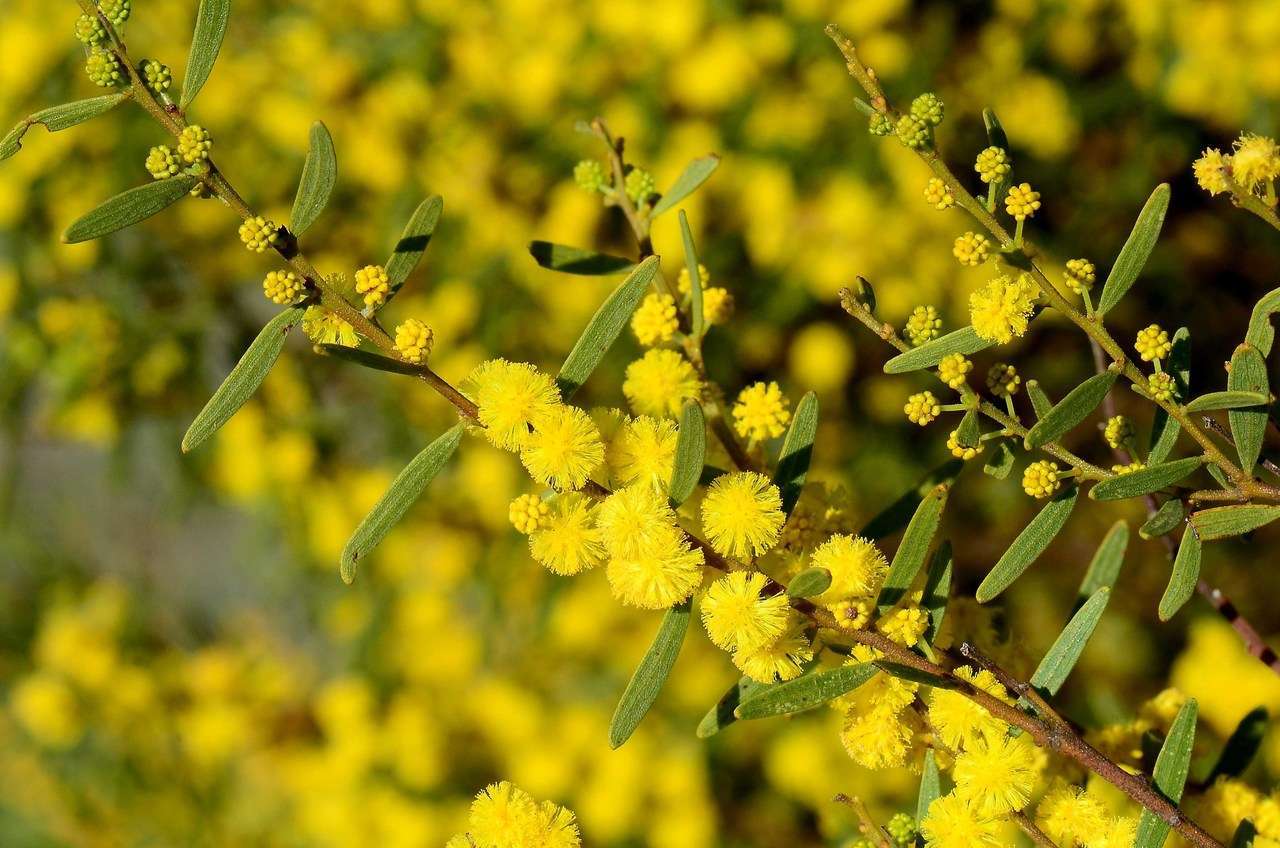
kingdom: Plantae
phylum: Tracheophyta
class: Magnoliopsida
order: Fabales
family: Fabaceae
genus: Acacia
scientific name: Acacia montana
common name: Mallee wattle
